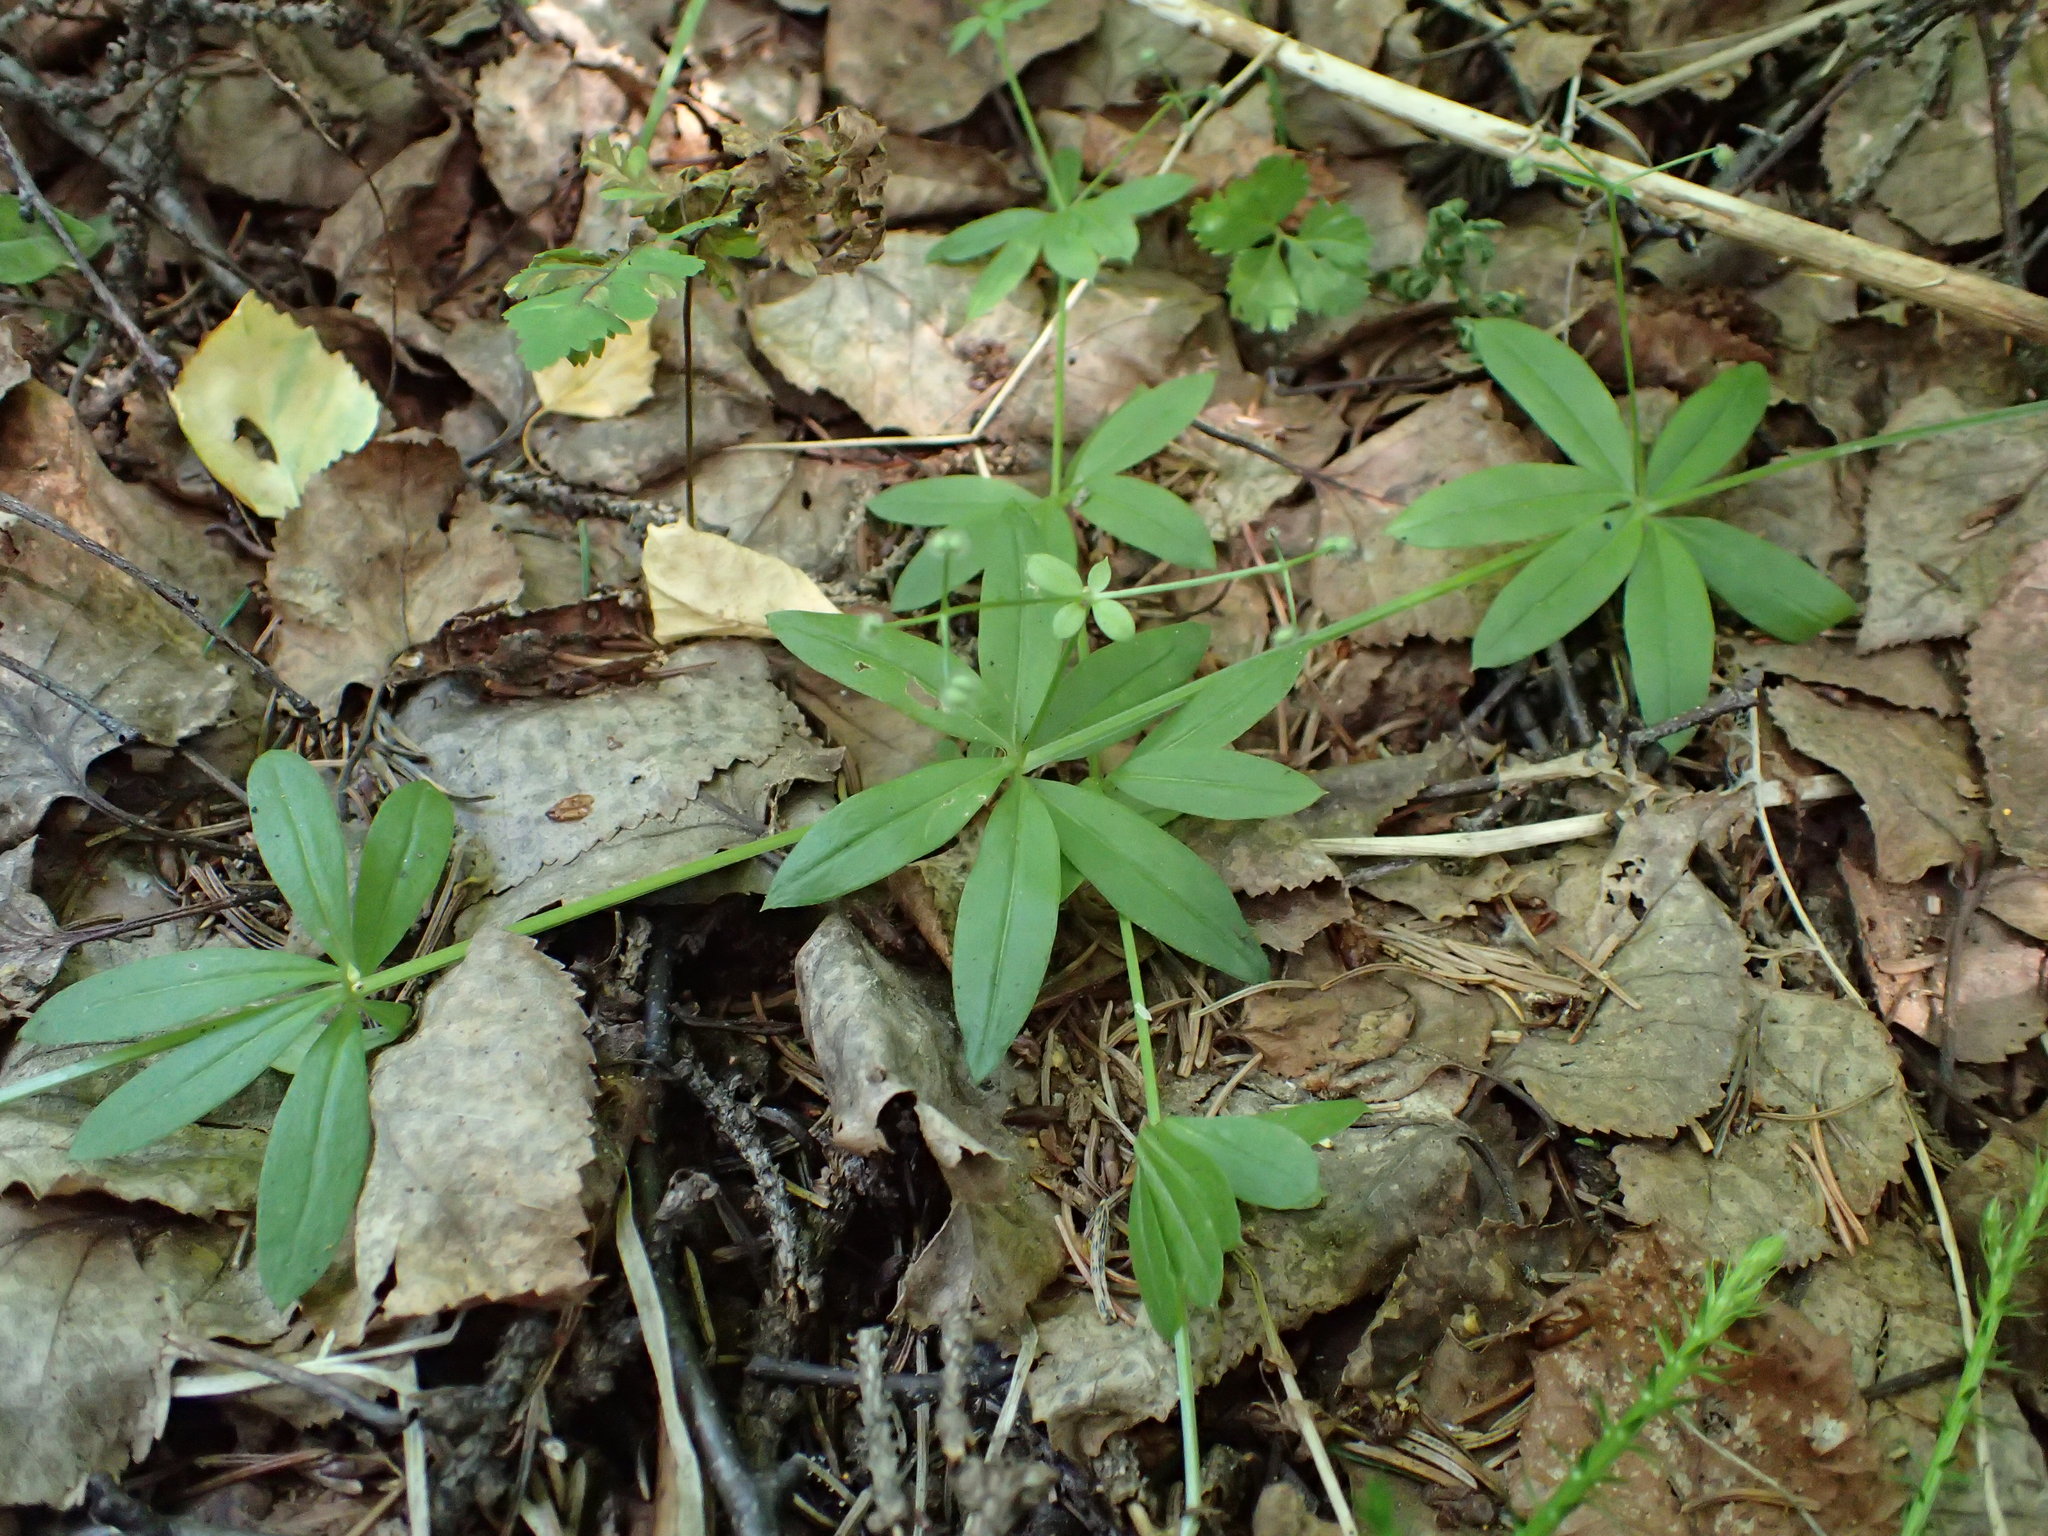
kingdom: Plantae
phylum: Tracheophyta
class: Magnoliopsida
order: Gentianales
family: Rubiaceae
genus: Galium
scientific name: Galium triflorum
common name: Fragrant bedstraw
